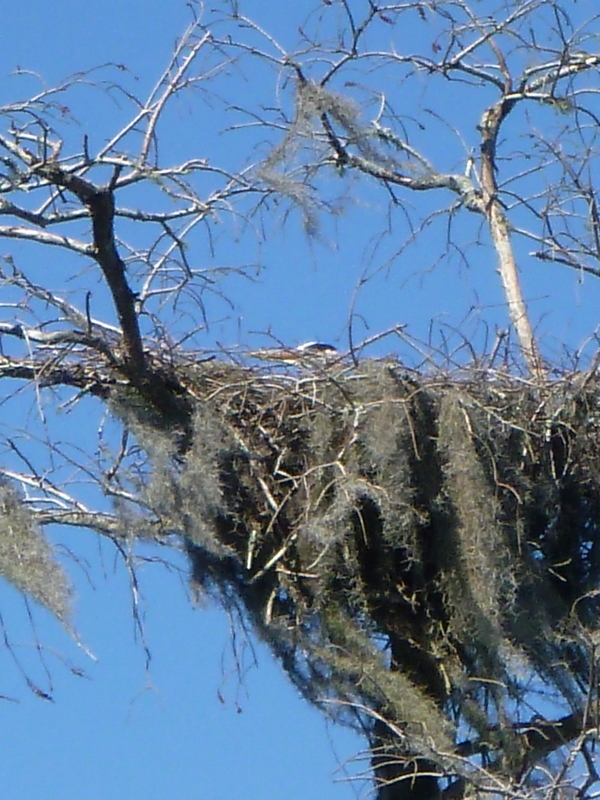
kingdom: Animalia
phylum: Chordata
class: Aves
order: Pelecaniformes
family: Ardeidae
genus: Ardea
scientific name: Ardea herodias
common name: Great blue heron
